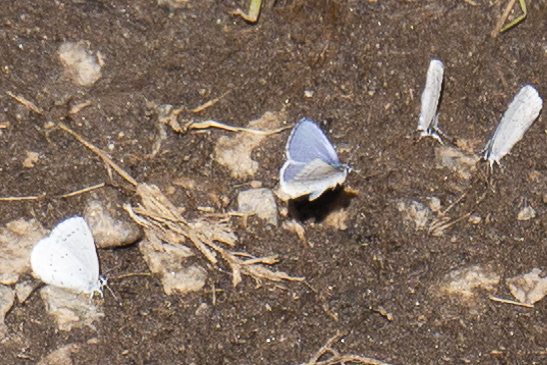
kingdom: Animalia
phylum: Arthropoda
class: Insecta
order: Lepidoptera
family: Lycaenidae
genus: Celastrina
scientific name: Celastrina ladon
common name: Spring azure
